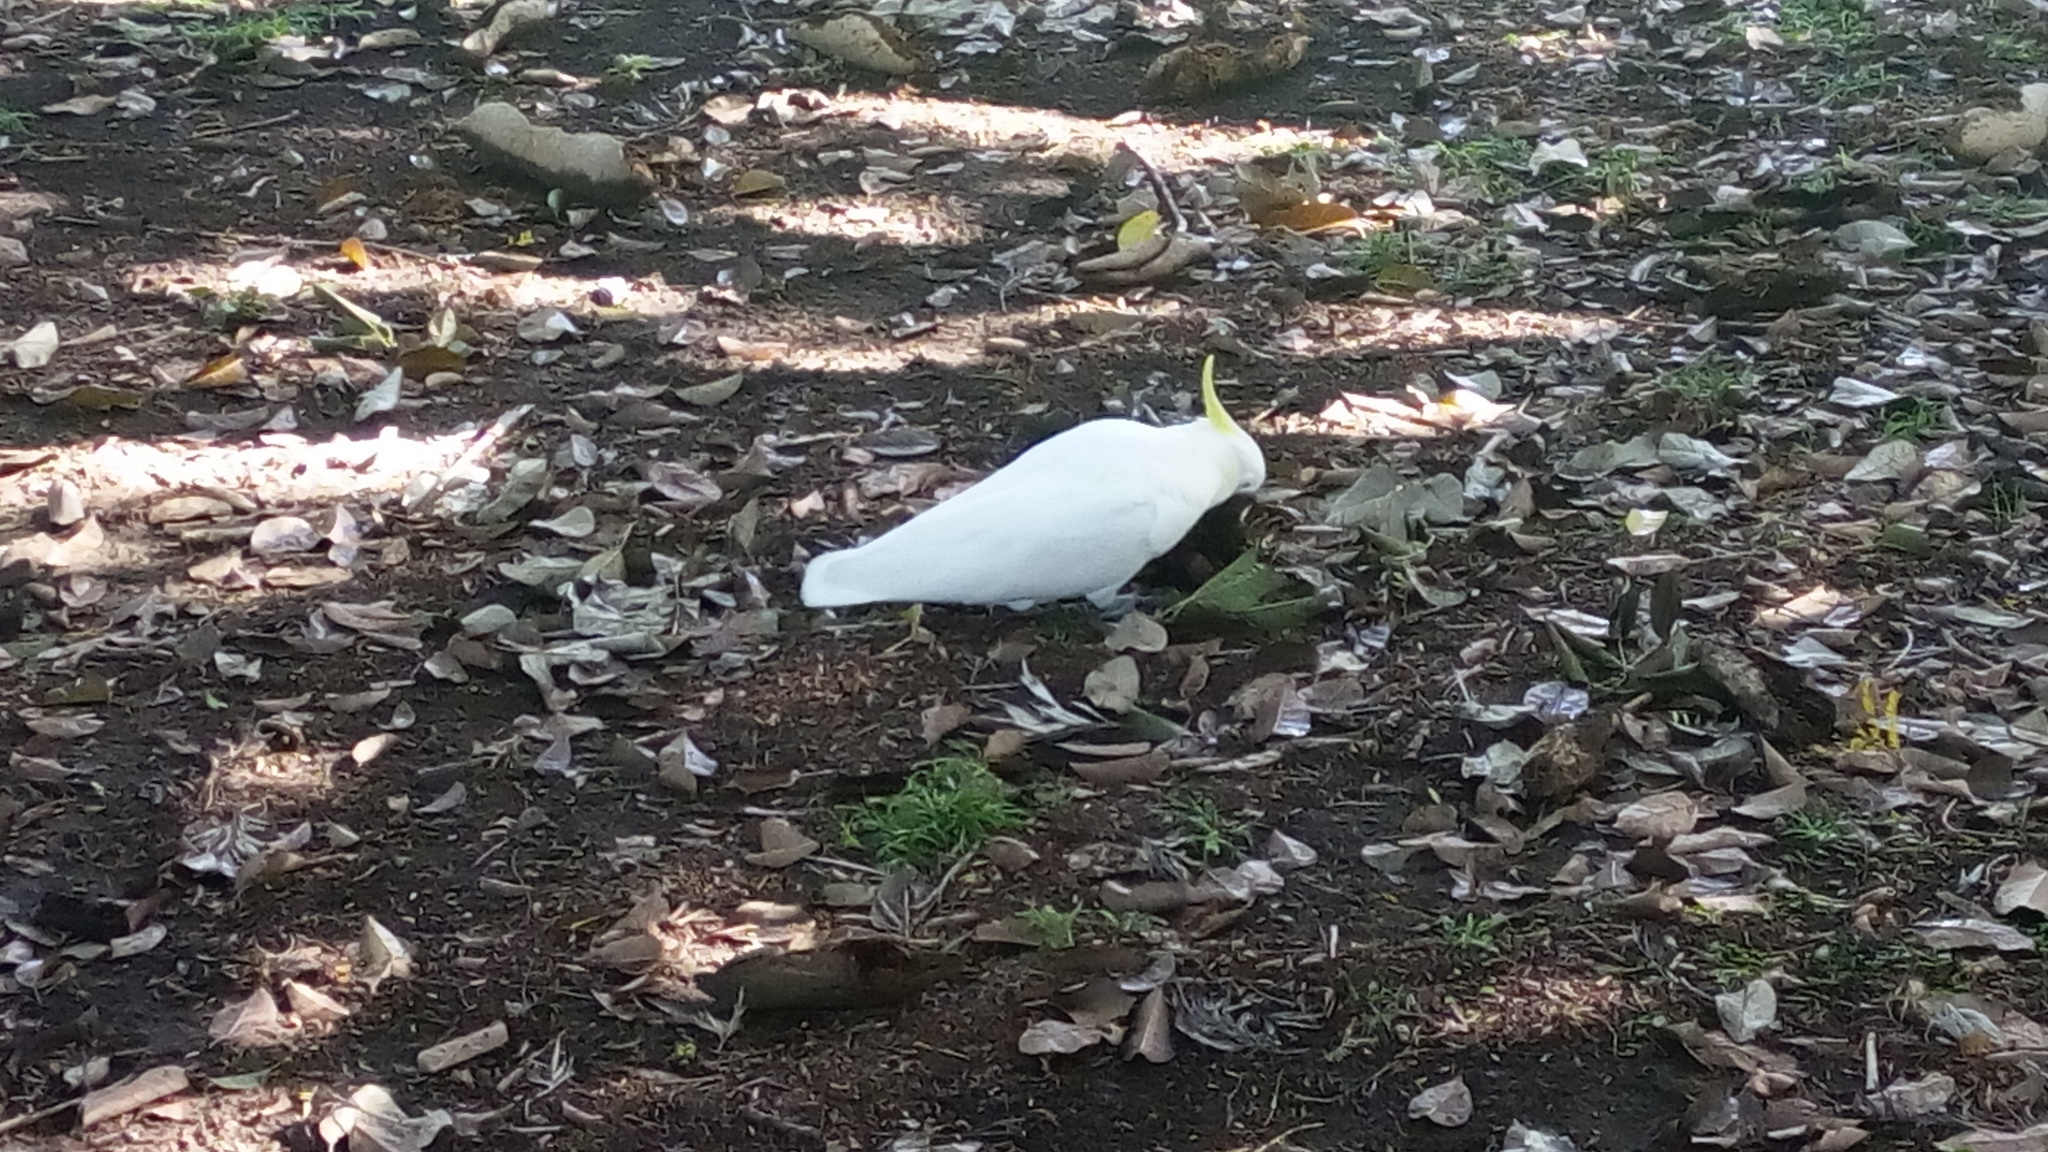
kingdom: Animalia
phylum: Chordata
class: Aves
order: Psittaciformes
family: Psittacidae
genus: Cacatua
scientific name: Cacatua galerita
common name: Sulphur-crested cockatoo
